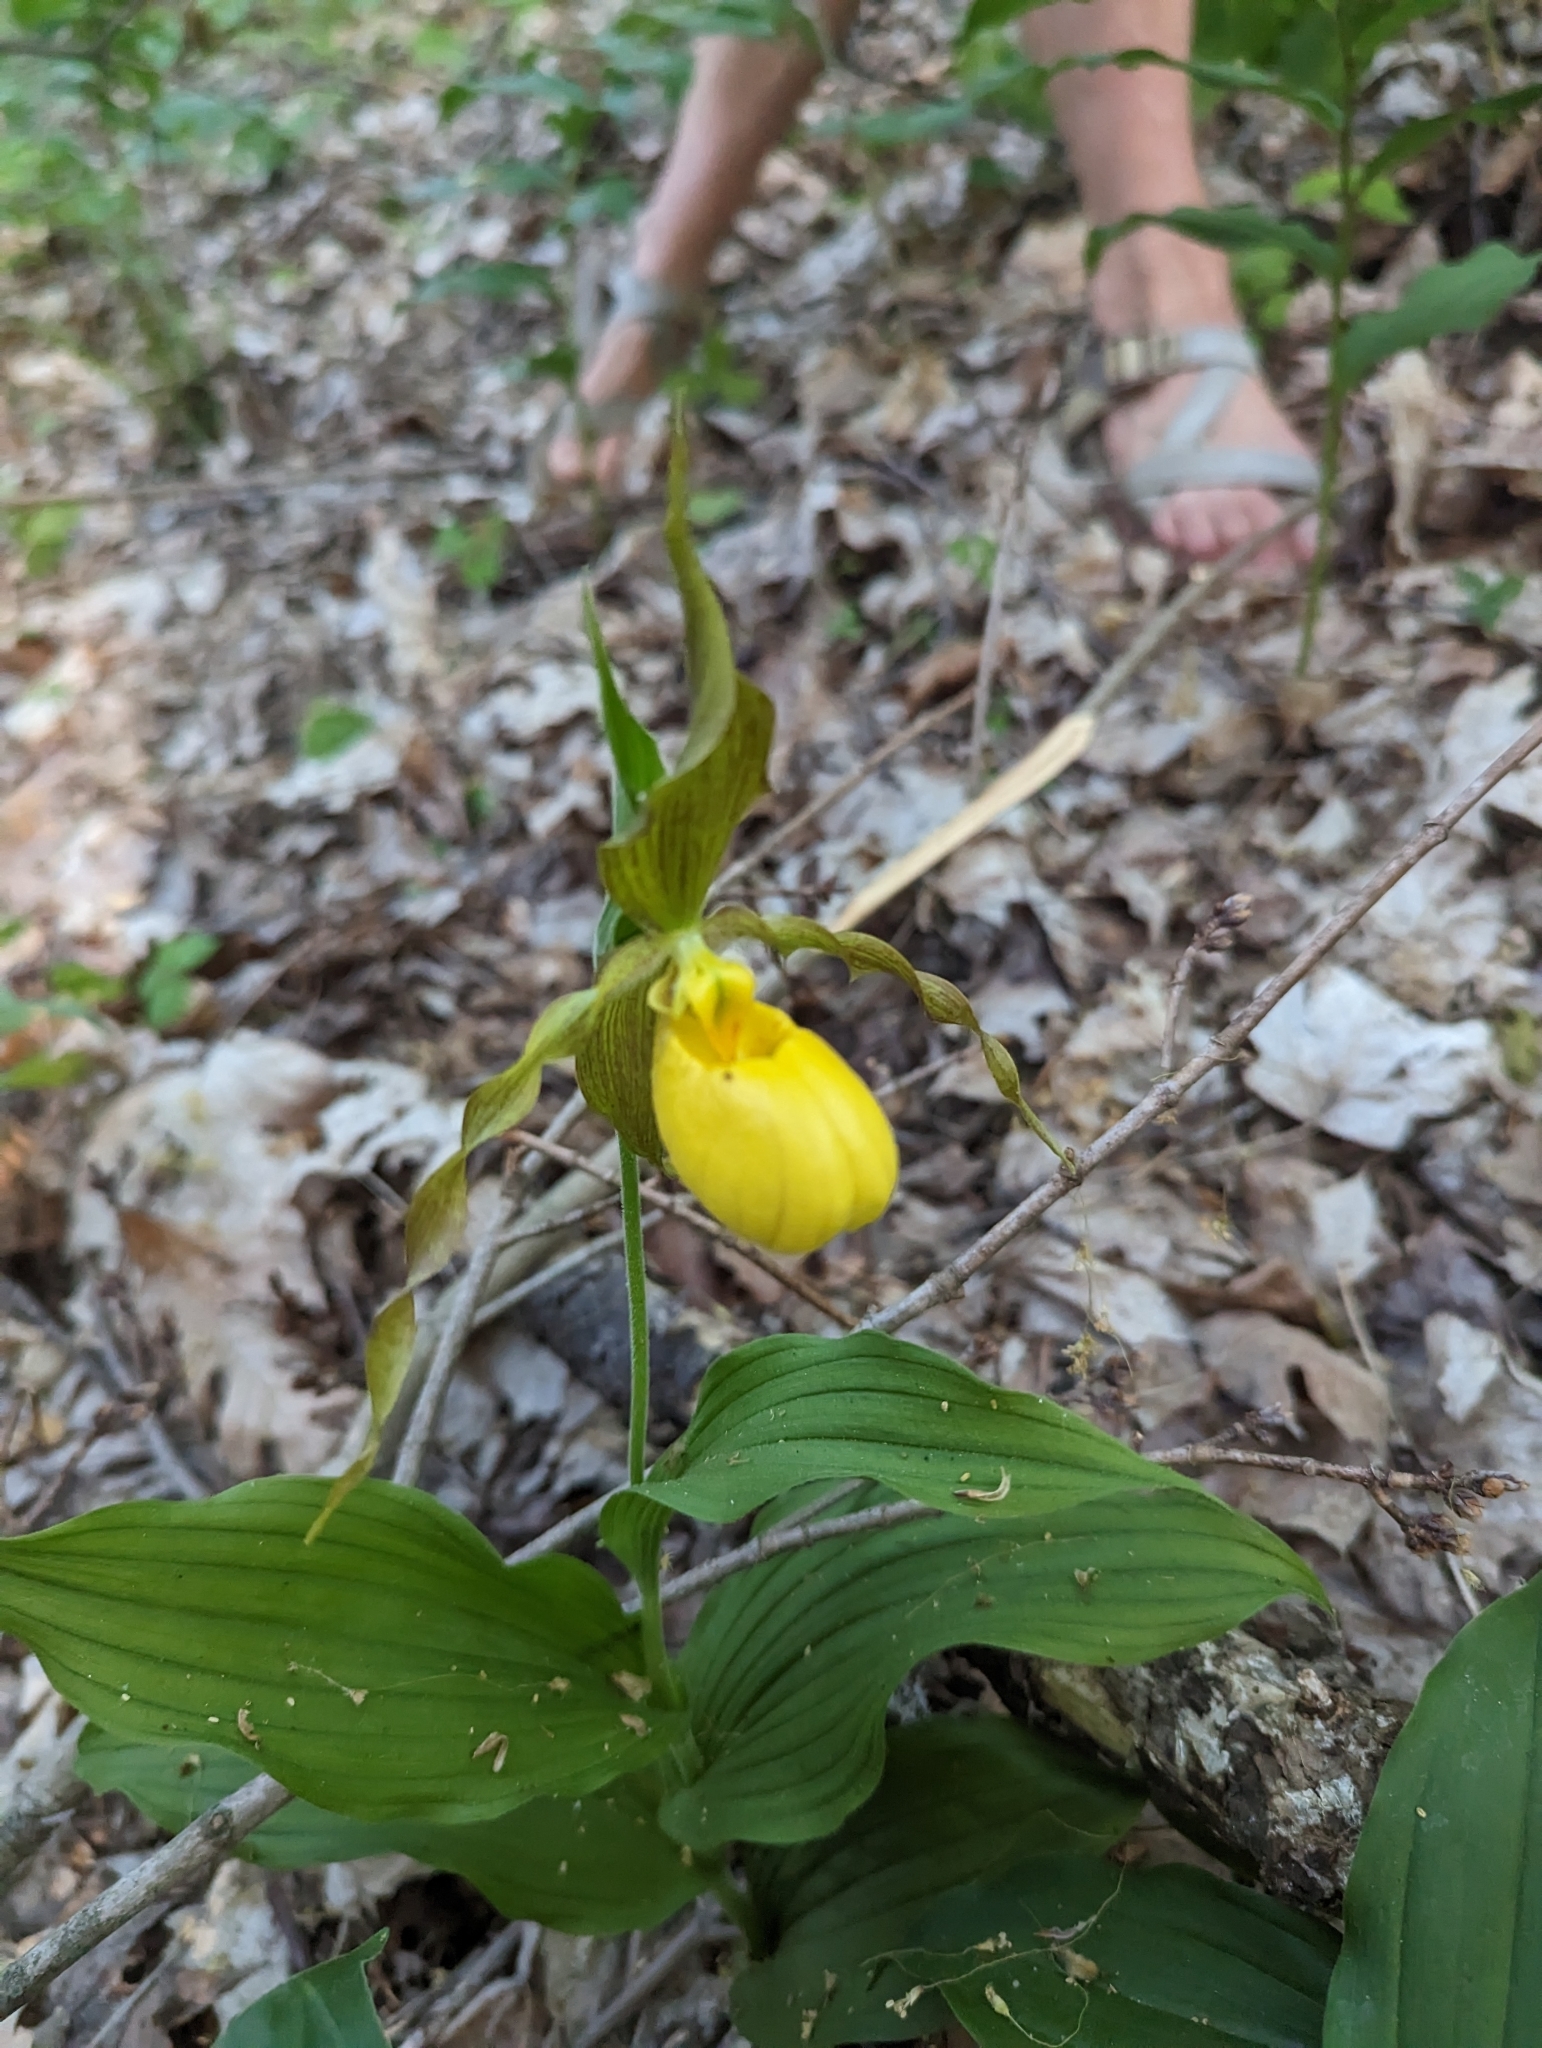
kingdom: Plantae
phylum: Tracheophyta
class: Liliopsida
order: Asparagales
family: Orchidaceae
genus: Cypripedium
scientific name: Cypripedium parviflorum
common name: American yellow lady's-slipper
